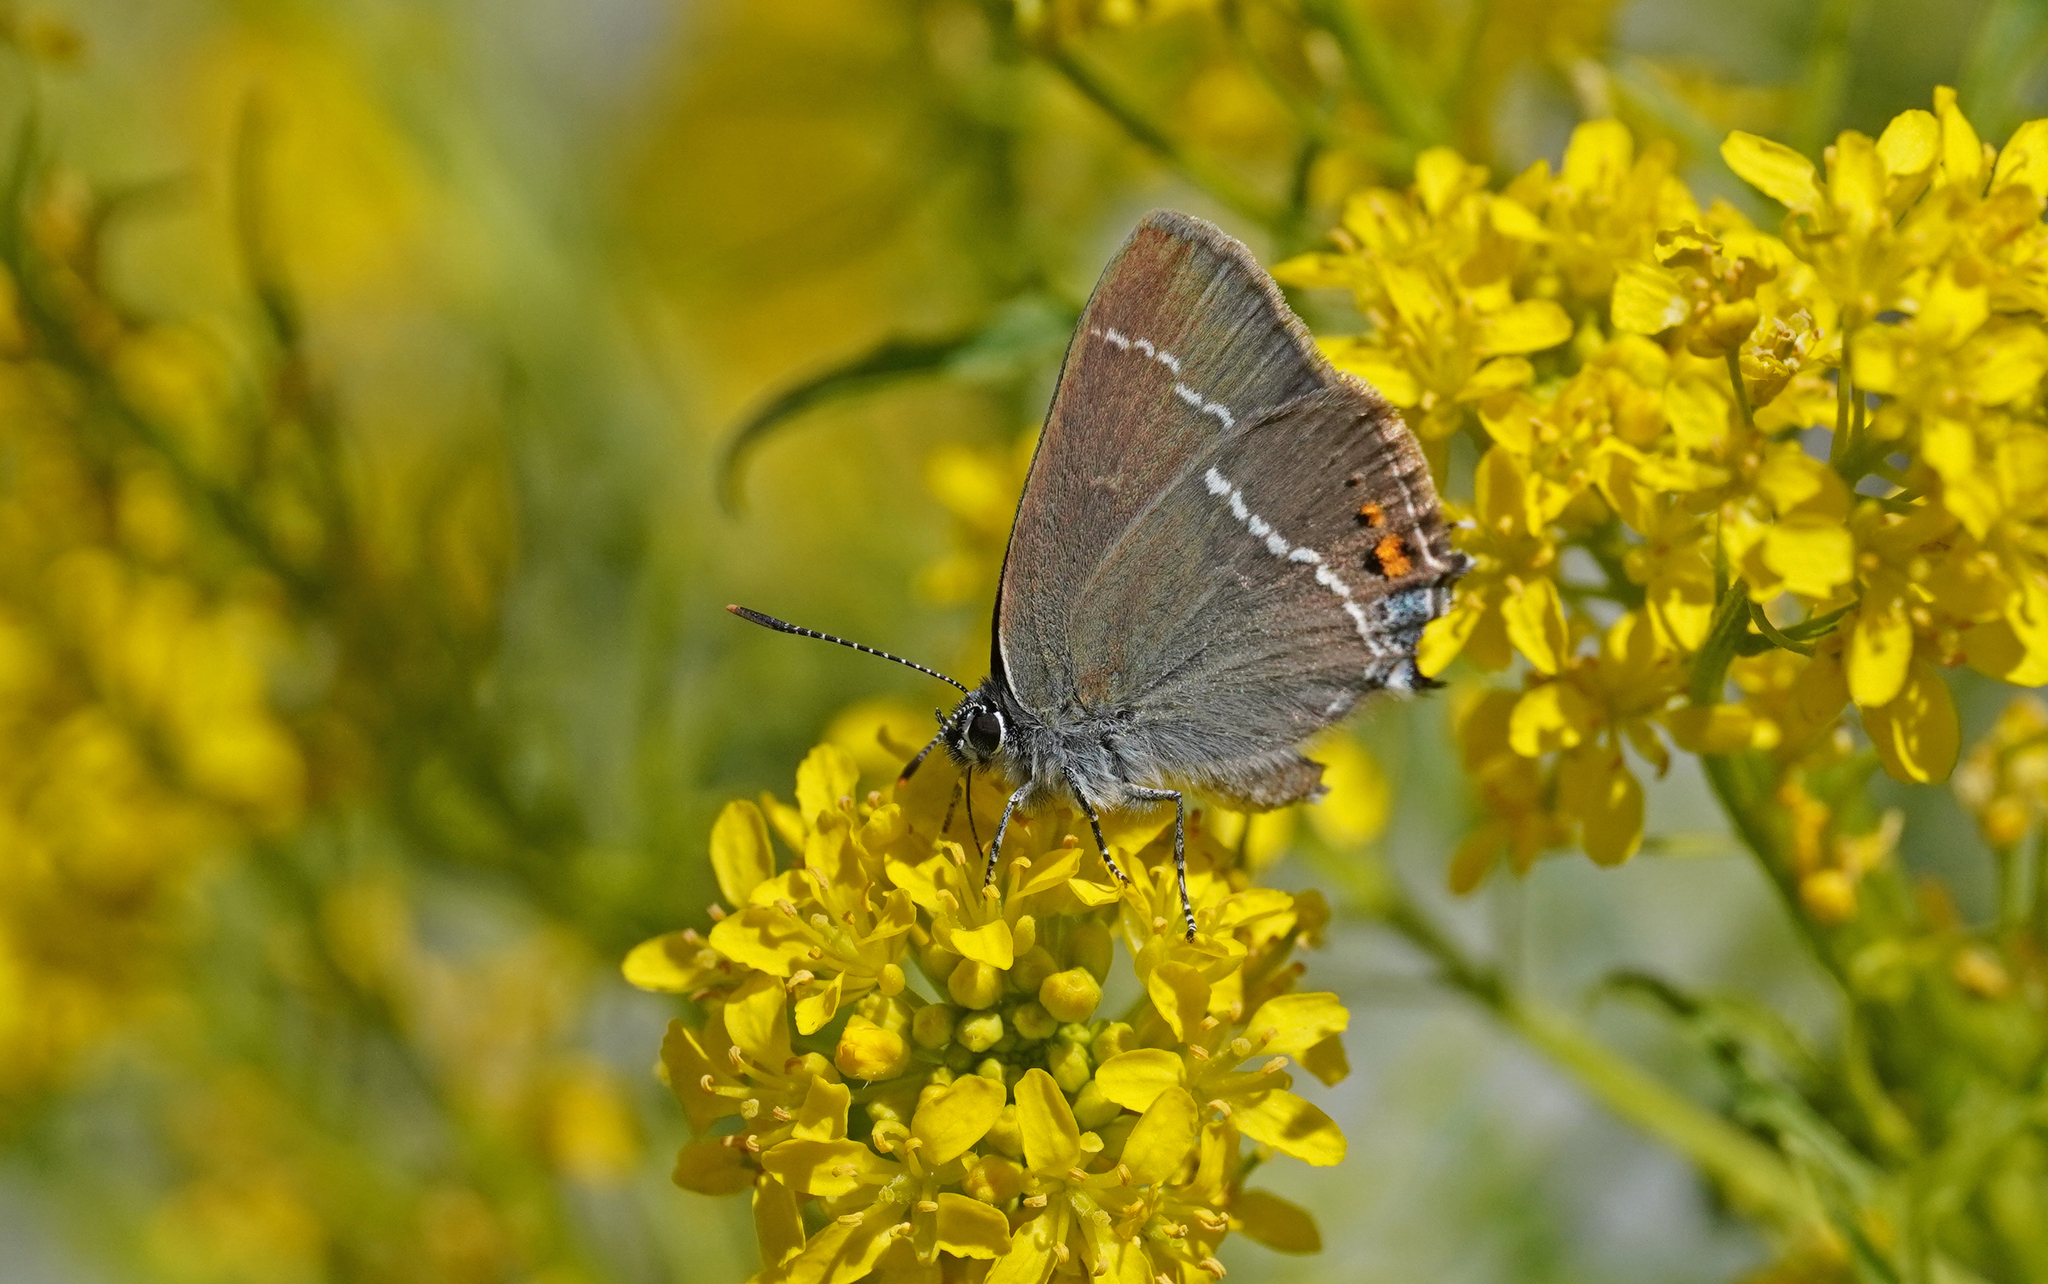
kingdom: Animalia
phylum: Arthropoda
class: Insecta
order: Lepidoptera
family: Lycaenidae
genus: Tuttiola
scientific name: Tuttiola spini
